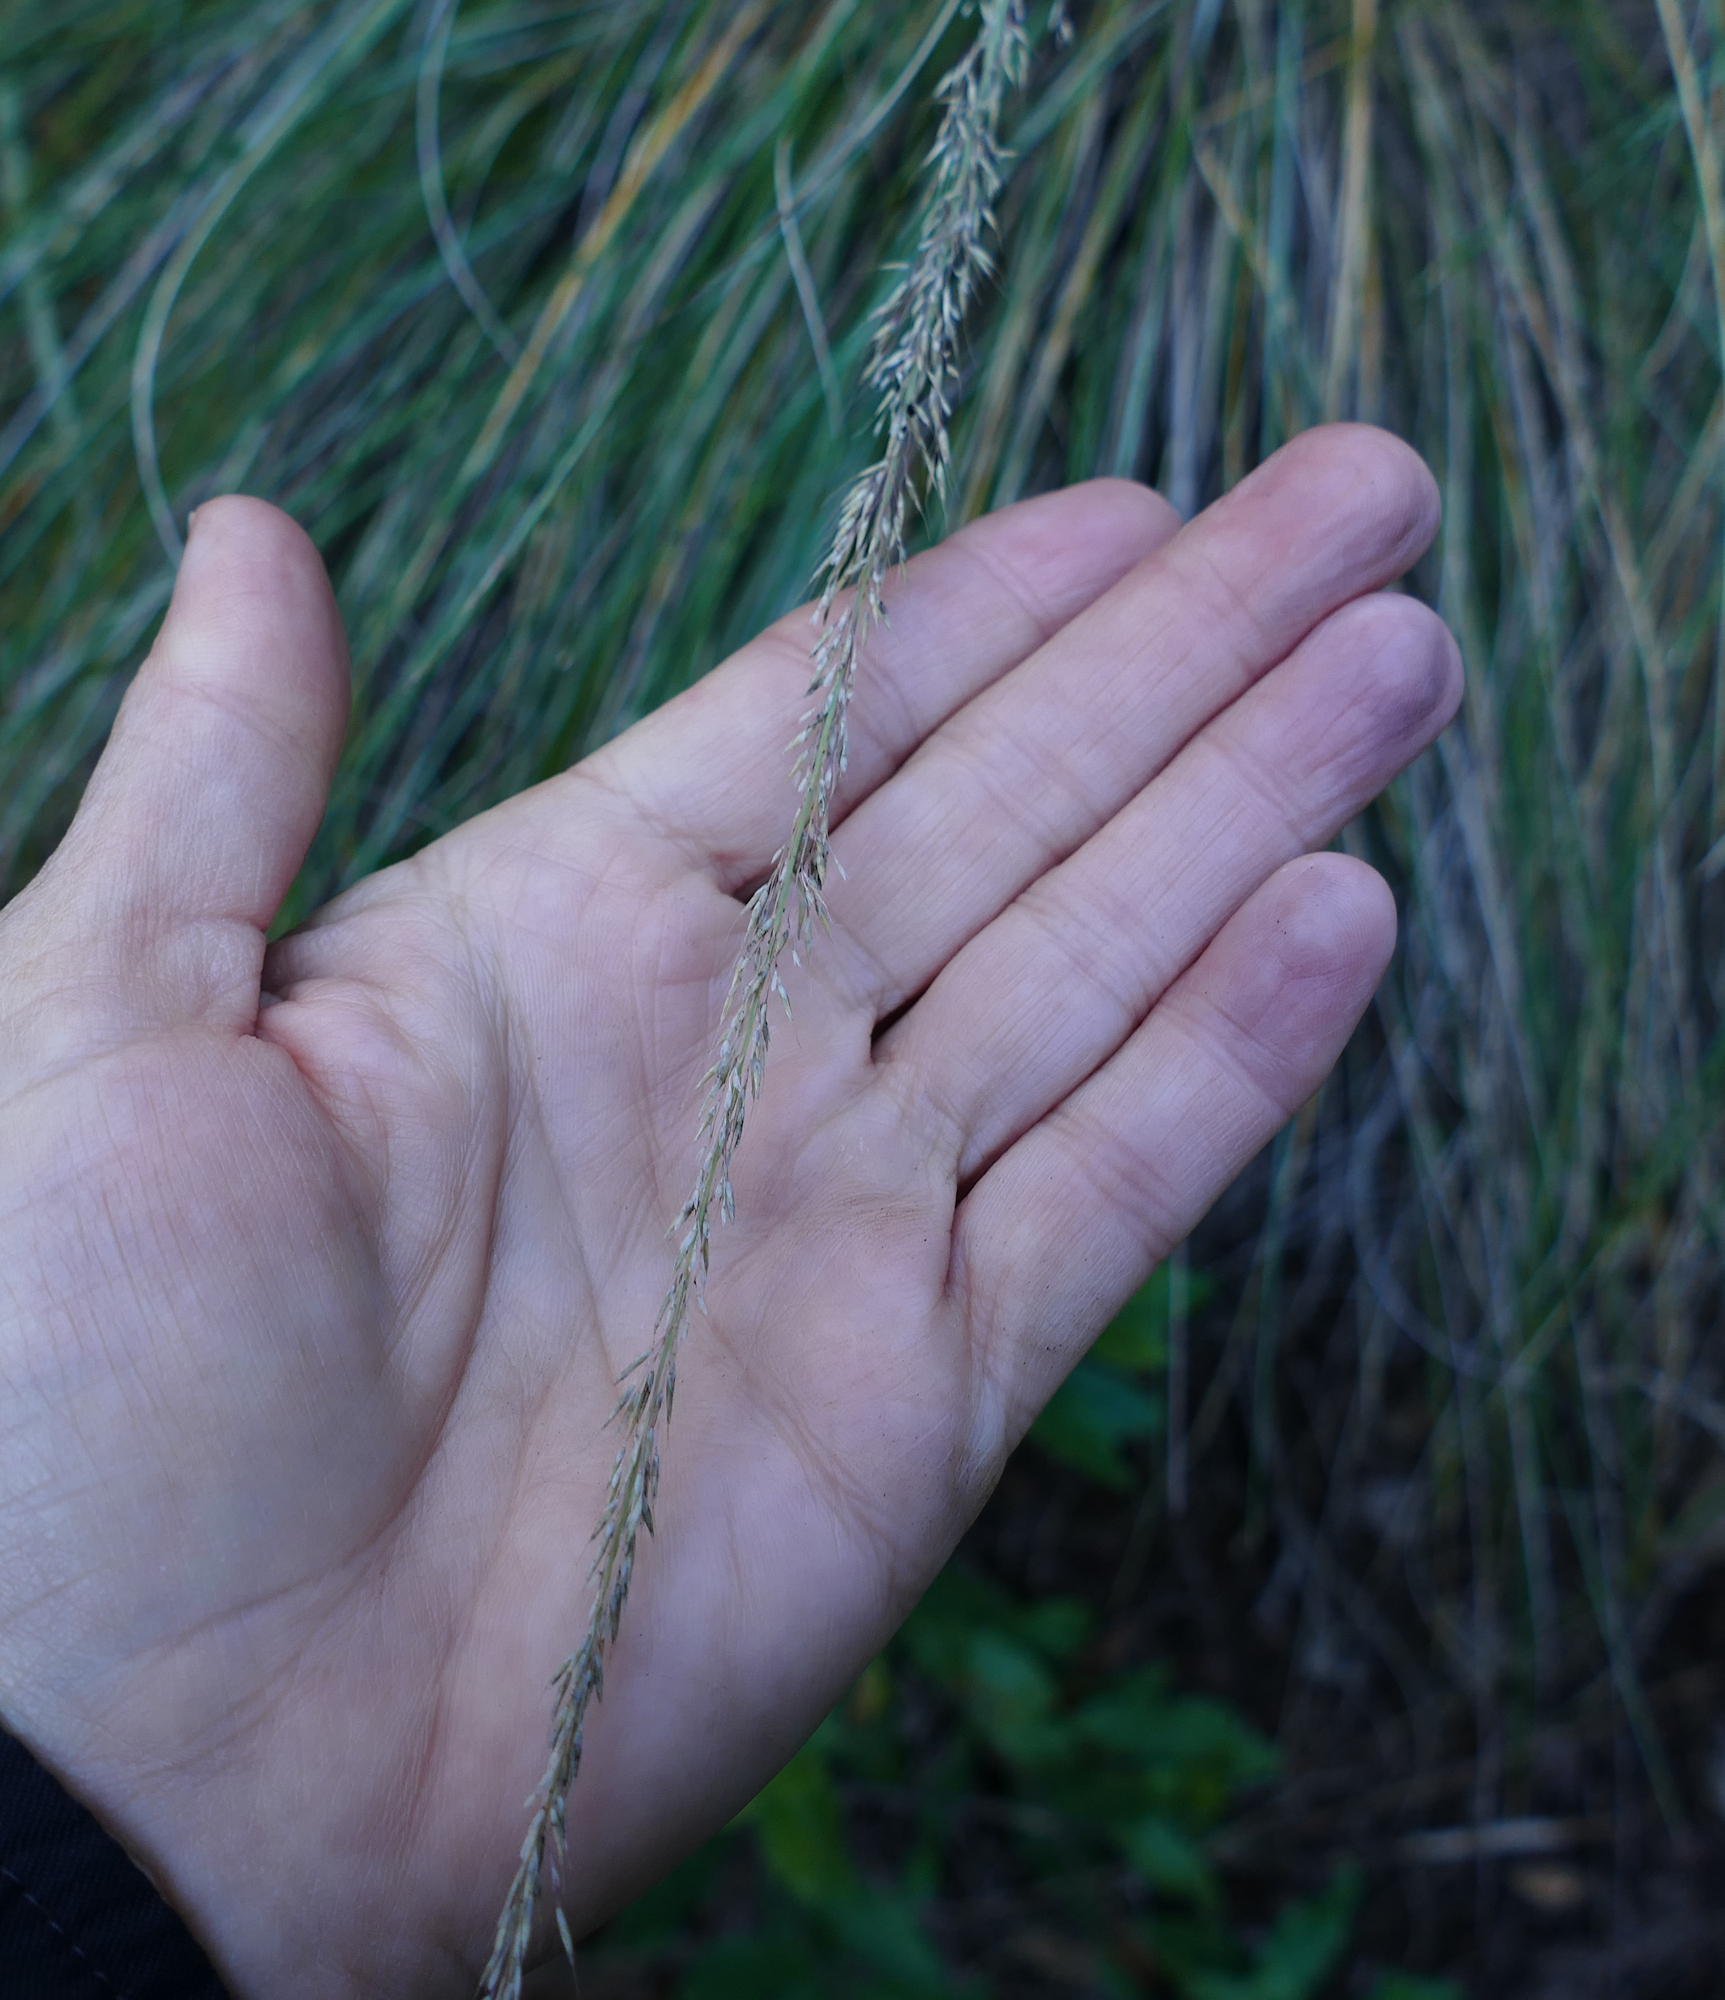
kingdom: Plantae
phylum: Tracheophyta
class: Liliopsida
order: Poales
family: Poaceae
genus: Muhlenbergia
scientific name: Muhlenbergia dubia
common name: Pine muhly
